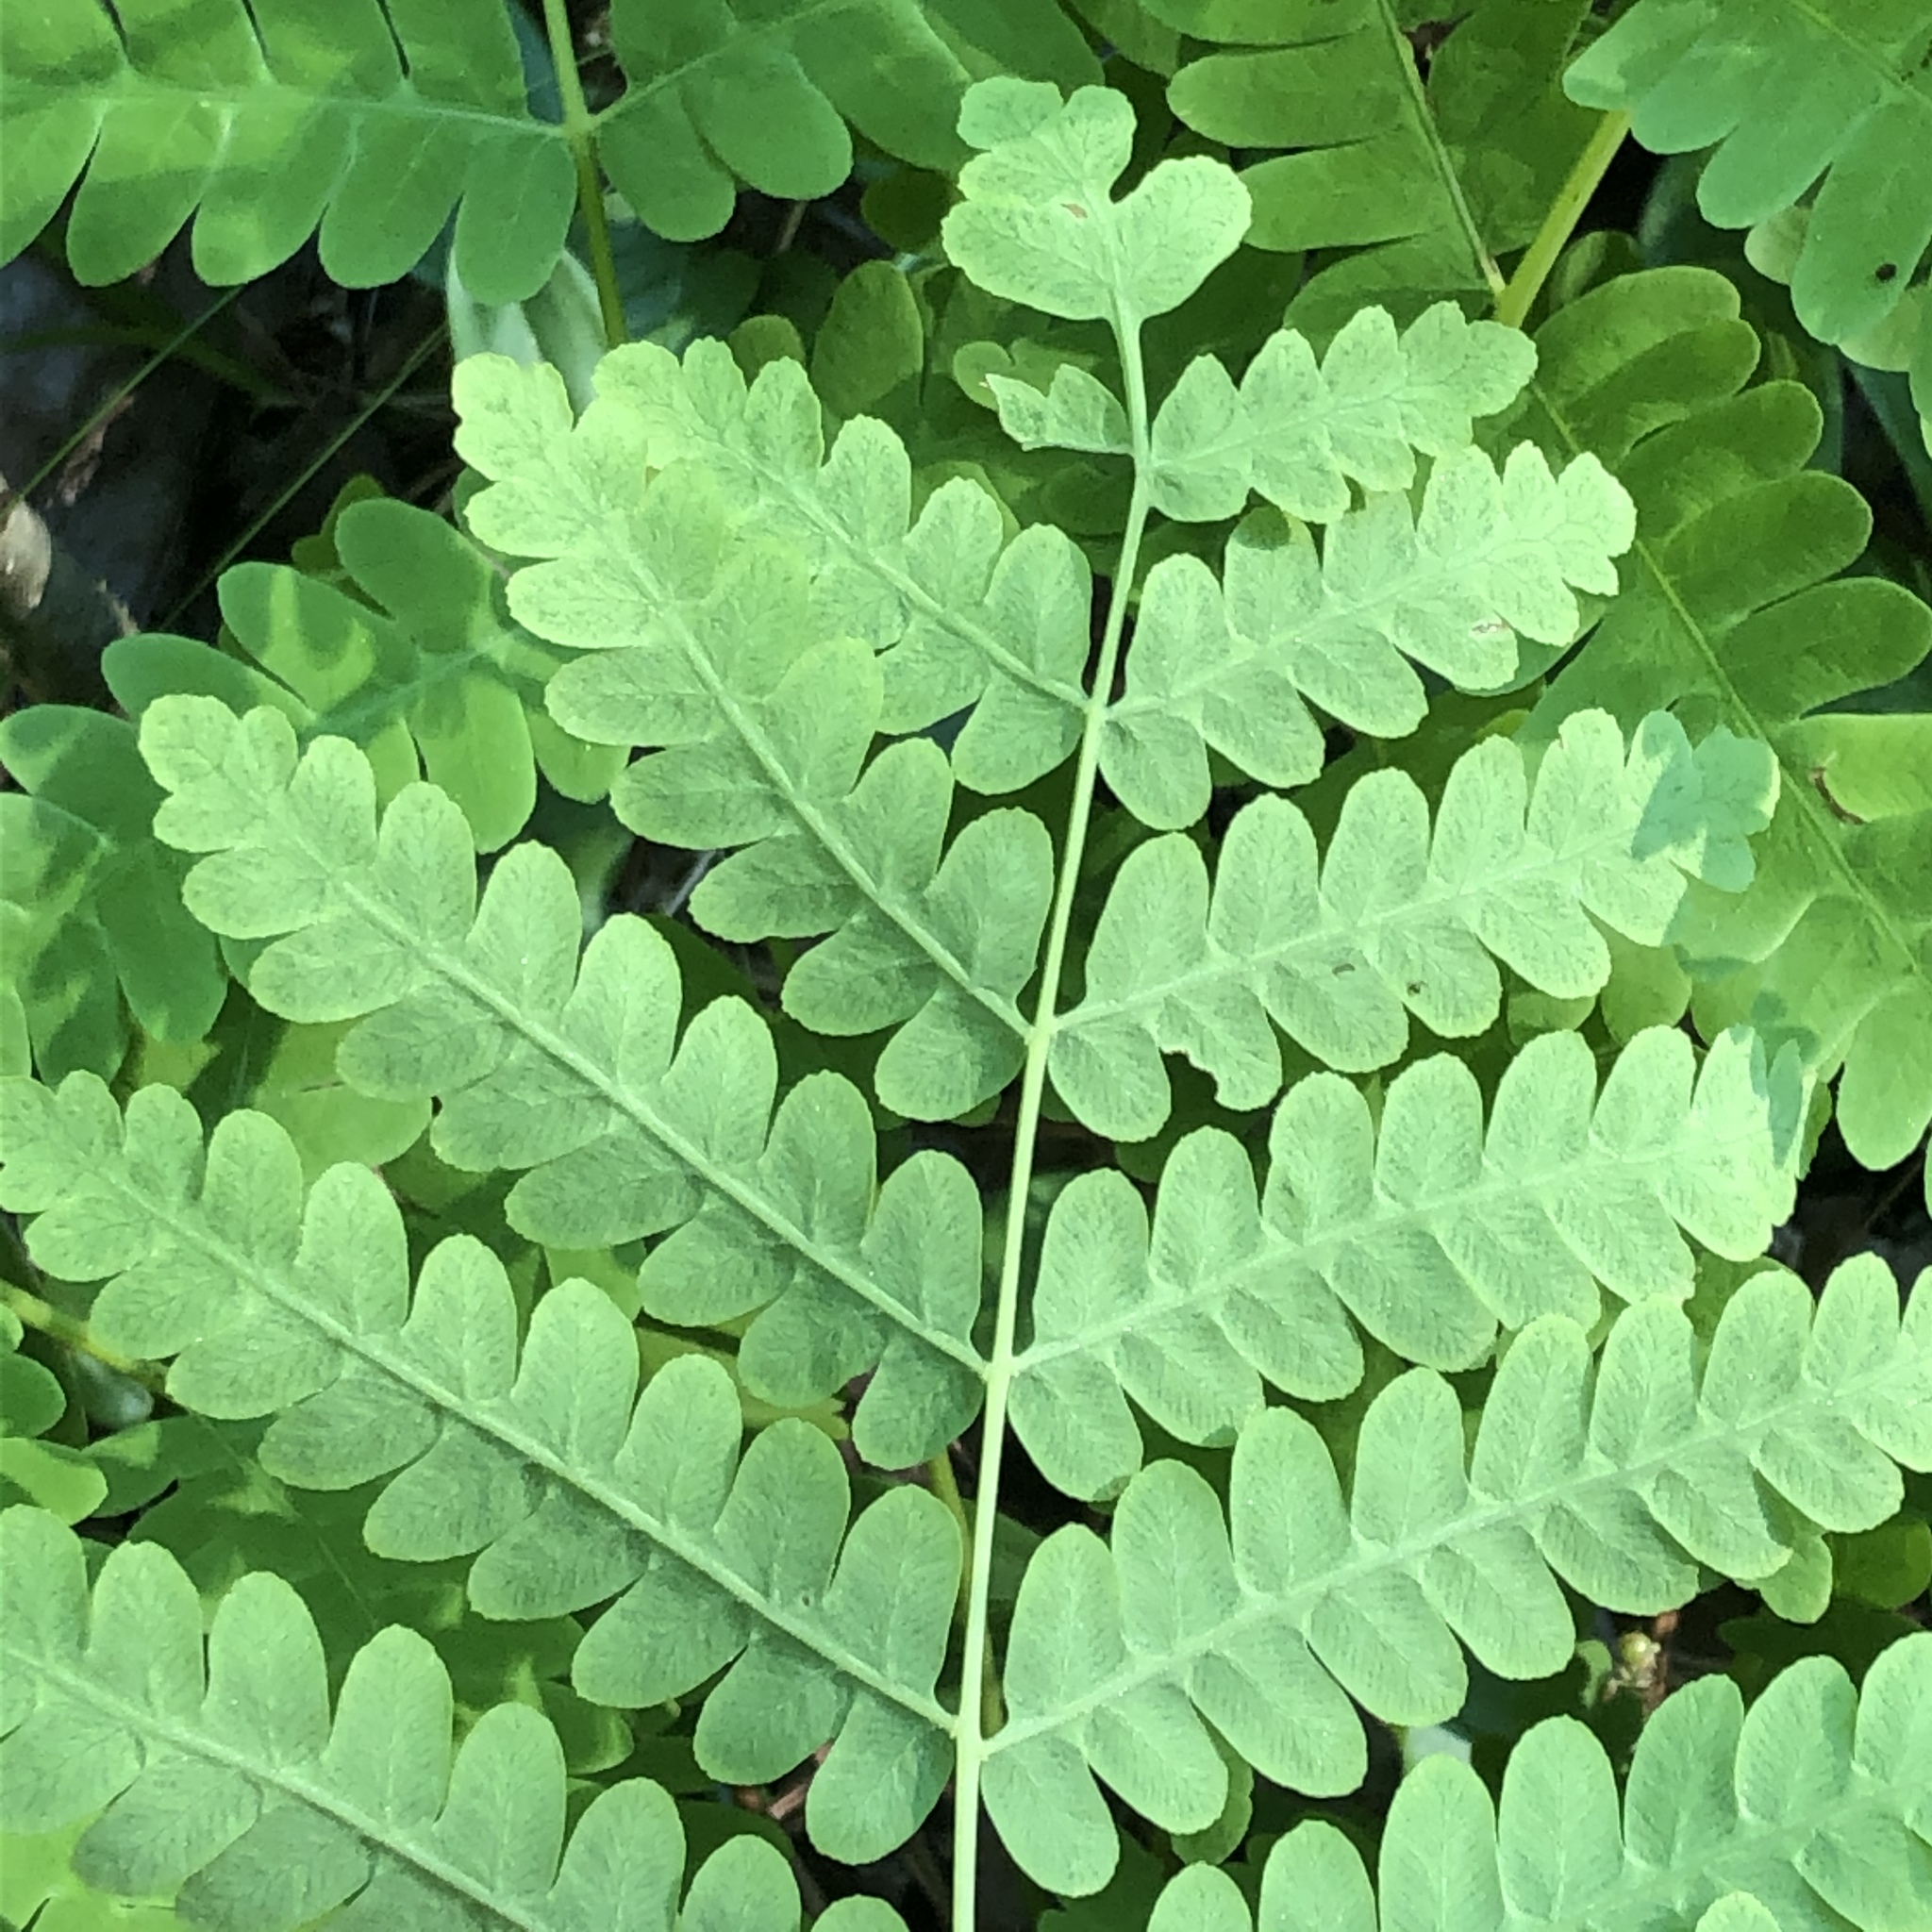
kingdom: Plantae
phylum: Tracheophyta
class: Polypodiopsida
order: Osmundales
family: Osmundaceae
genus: Claytosmunda
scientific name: Claytosmunda claytoniana
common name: Clayton's fern
